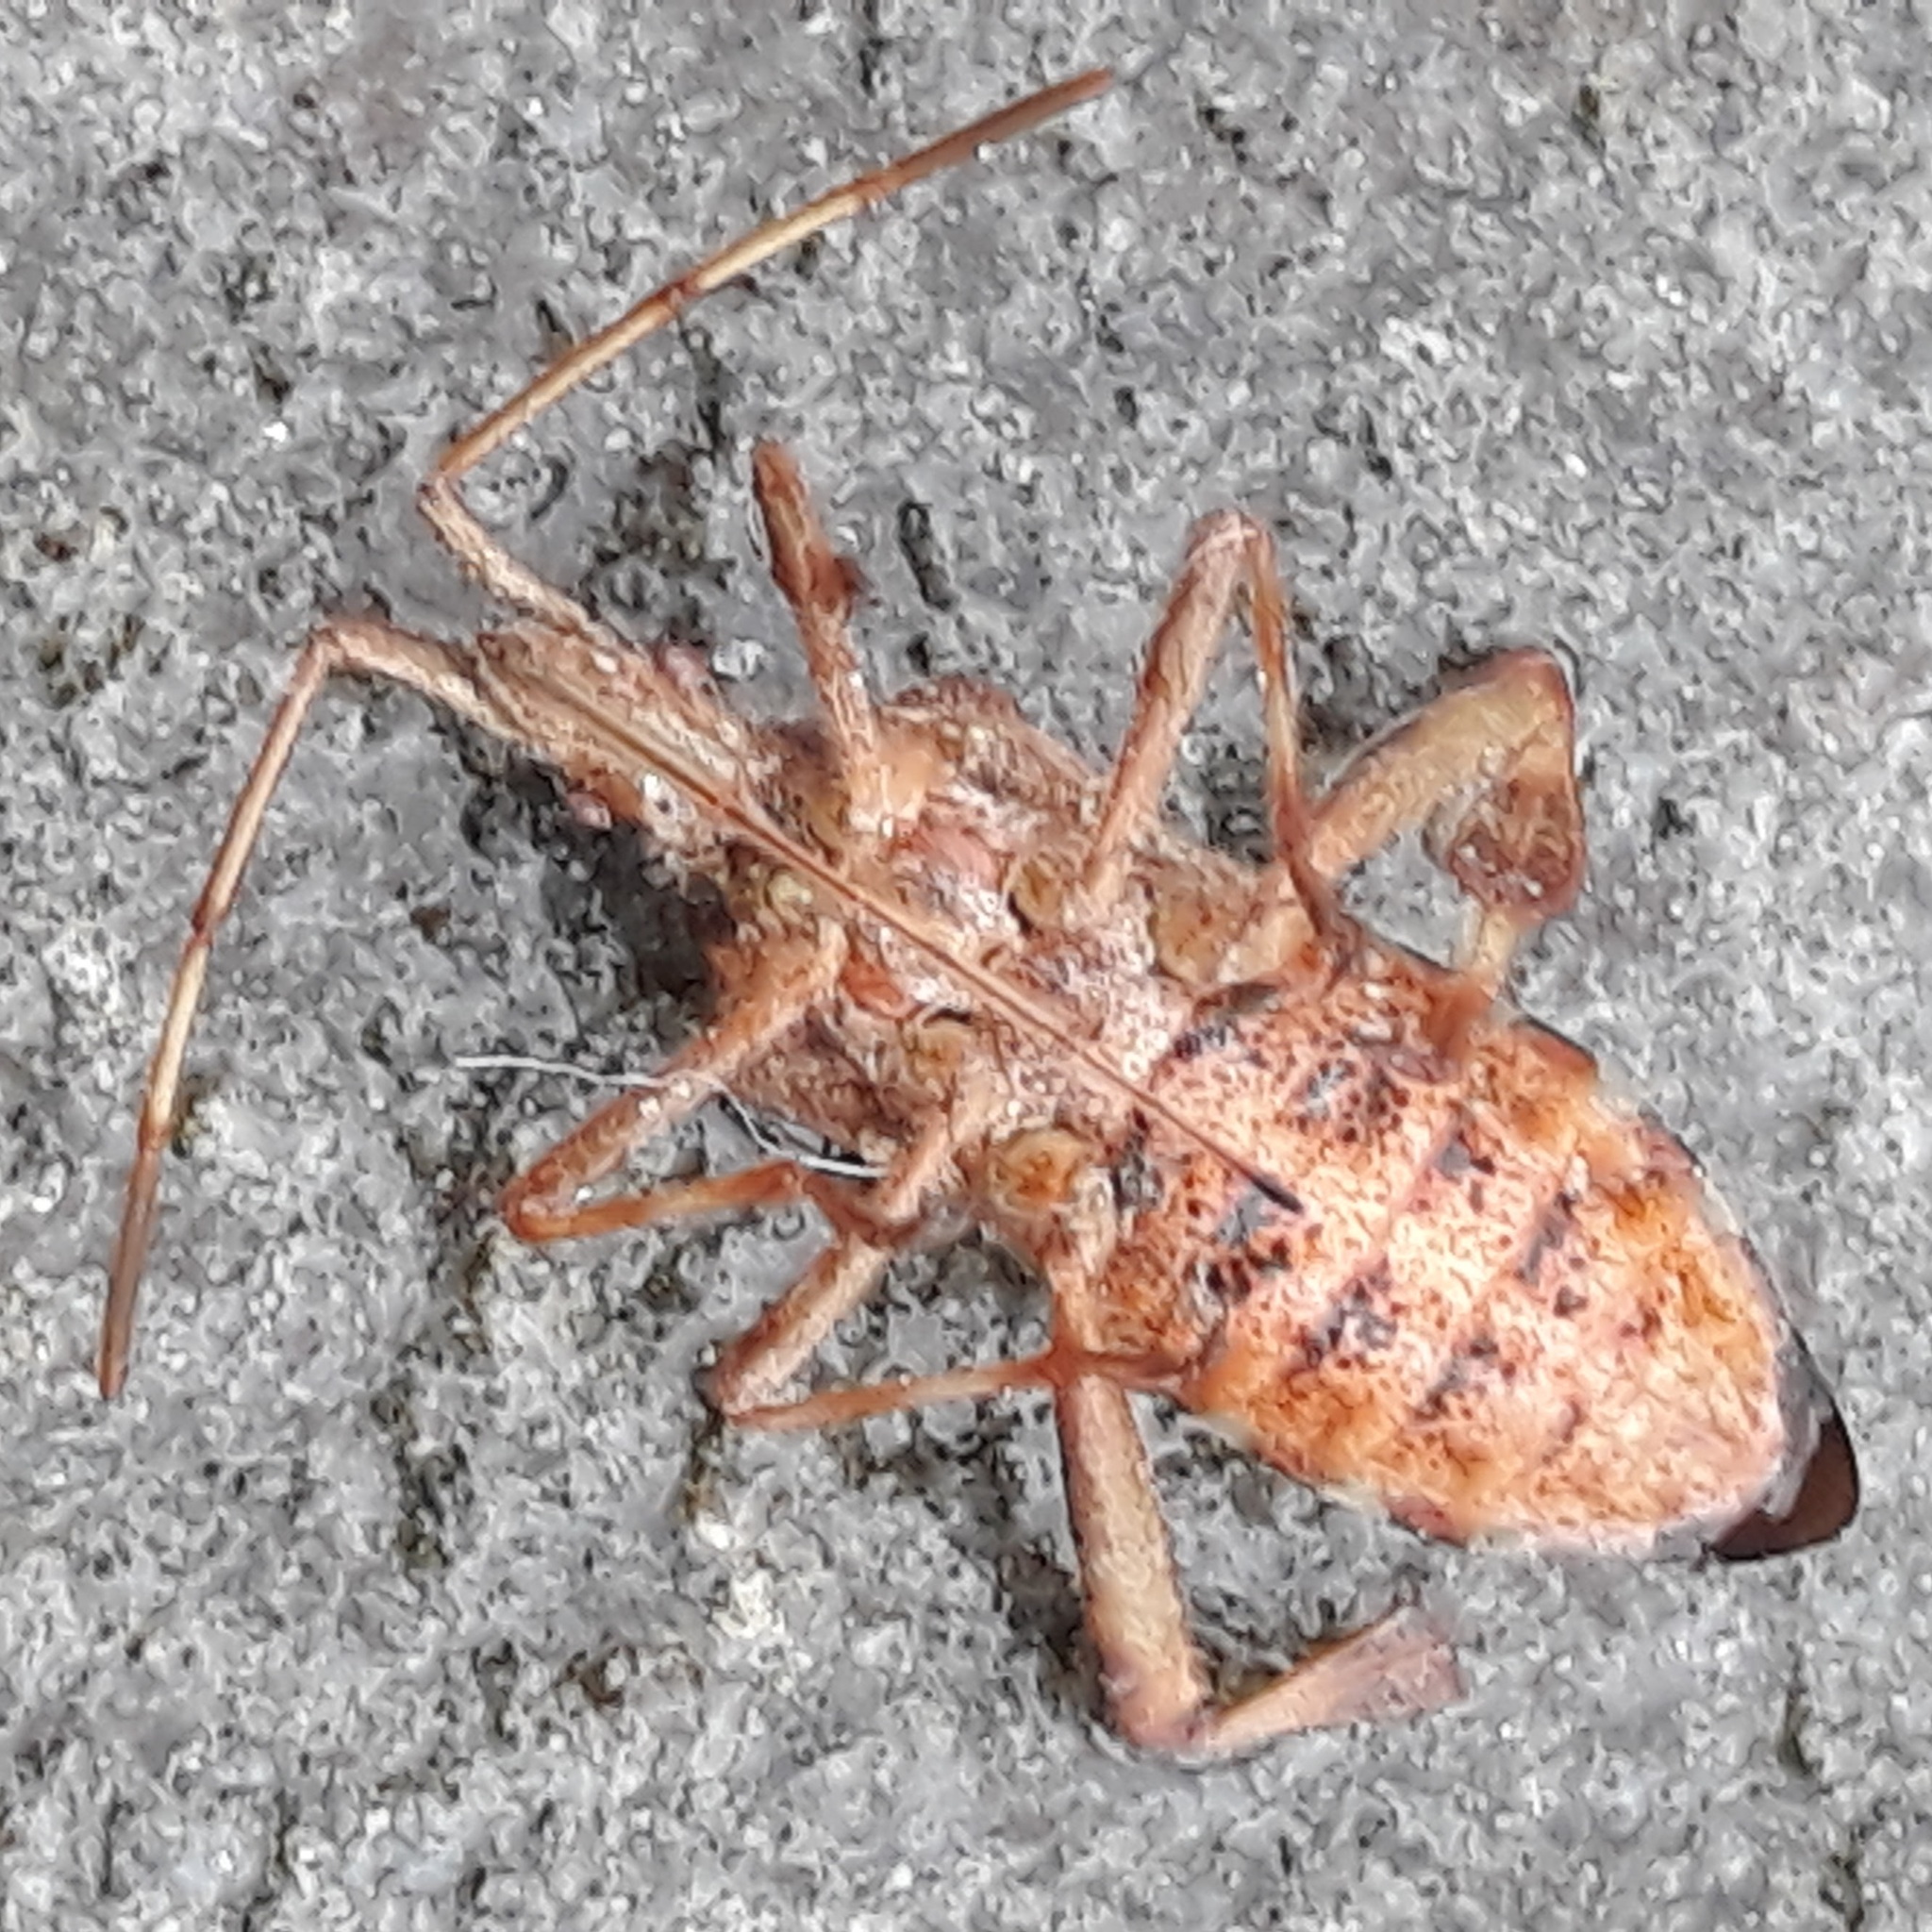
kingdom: Animalia
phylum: Arthropoda
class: Insecta
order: Hemiptera
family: Coreidae
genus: Leptoglossus
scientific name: Leptoglossus occidentalis
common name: Western conifer-seed bug
